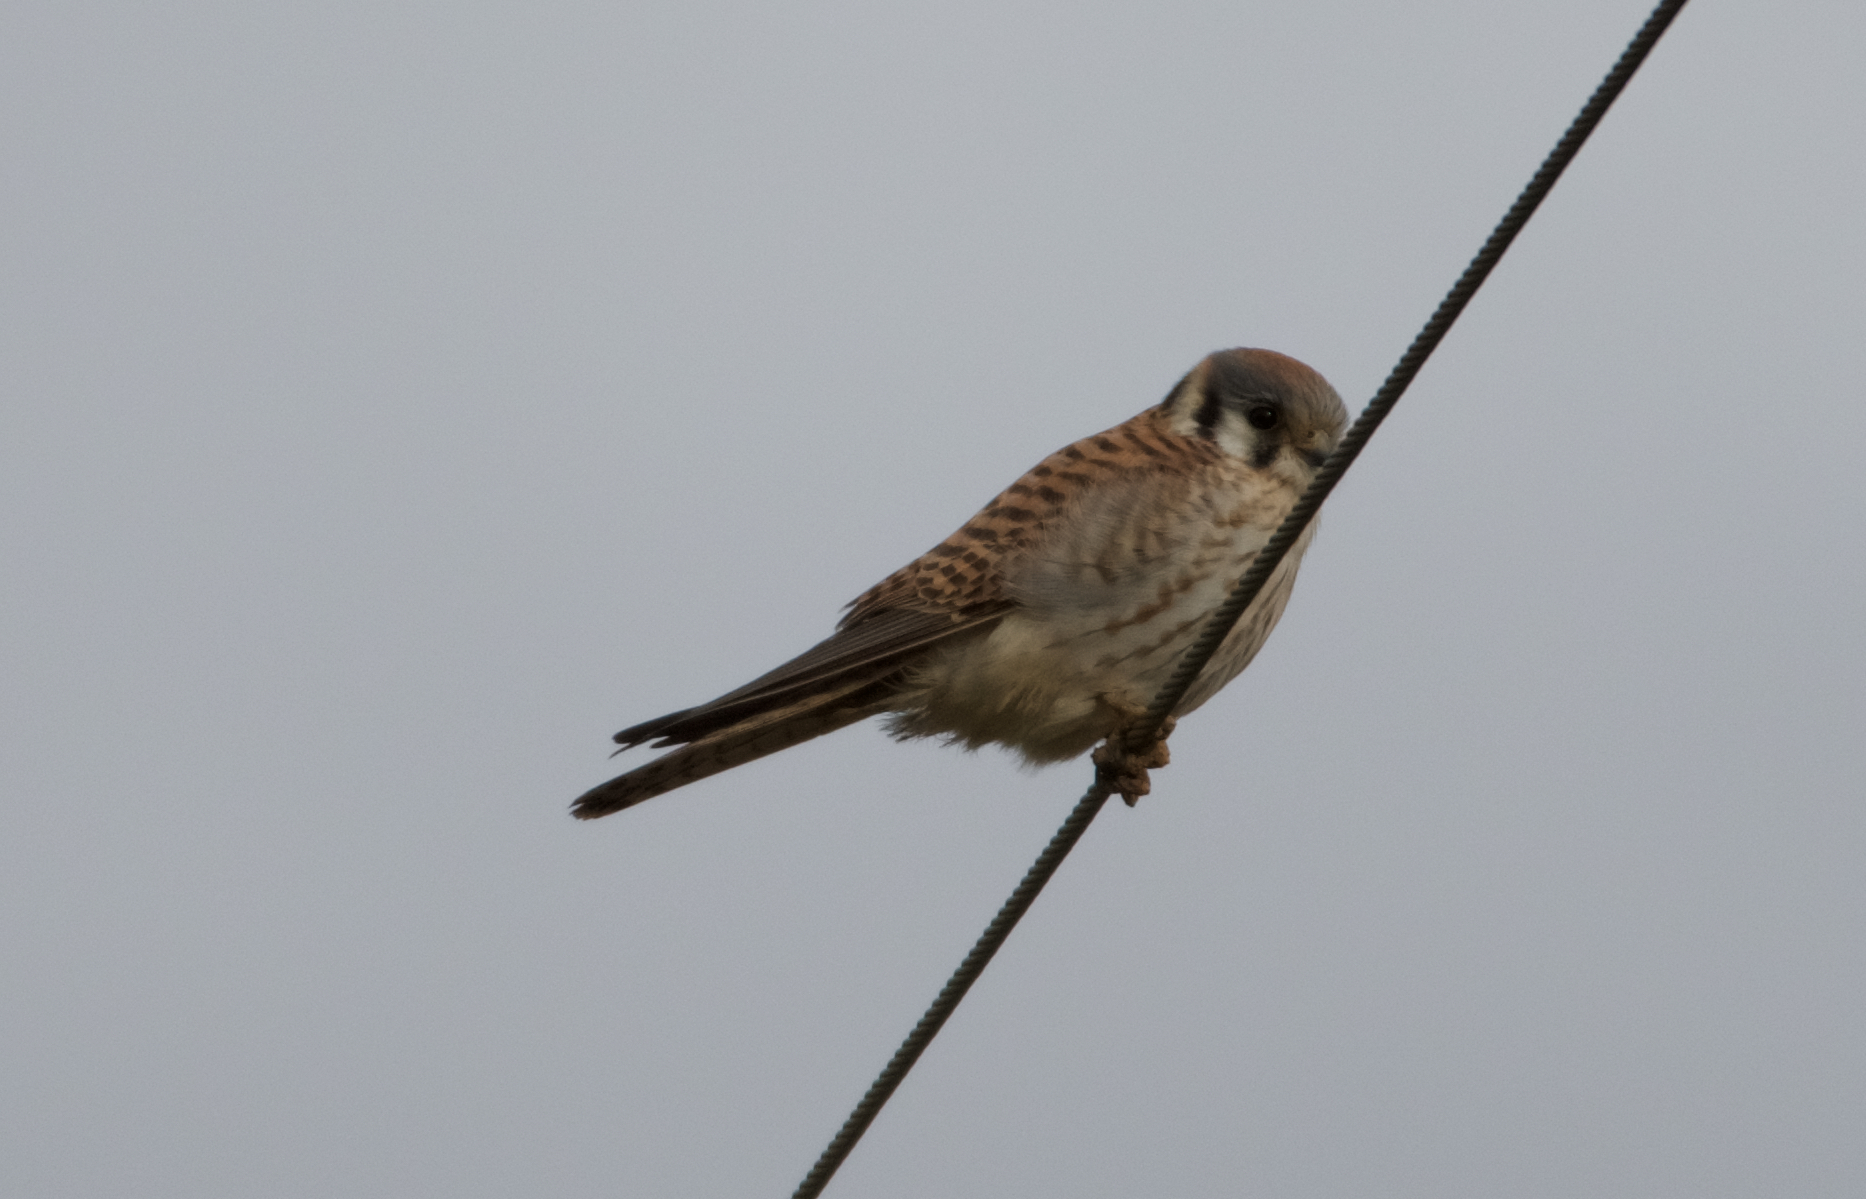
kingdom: Animalia
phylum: Chordata
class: Aves
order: Falconiformes
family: Falconidae
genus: Falco
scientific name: Falco sparverius
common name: American kestrel
